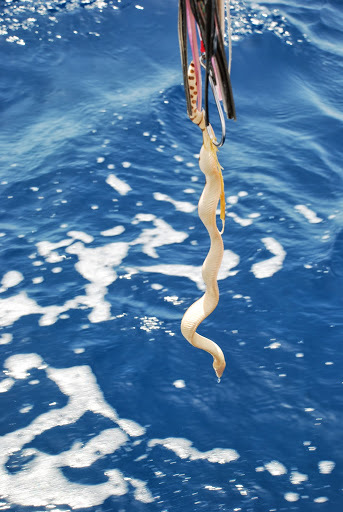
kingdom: Animalia
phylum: Chordata
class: Squamata
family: Elapidae
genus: Hydrophis
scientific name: Hydrophis platurus
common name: Pelagic sea snake
